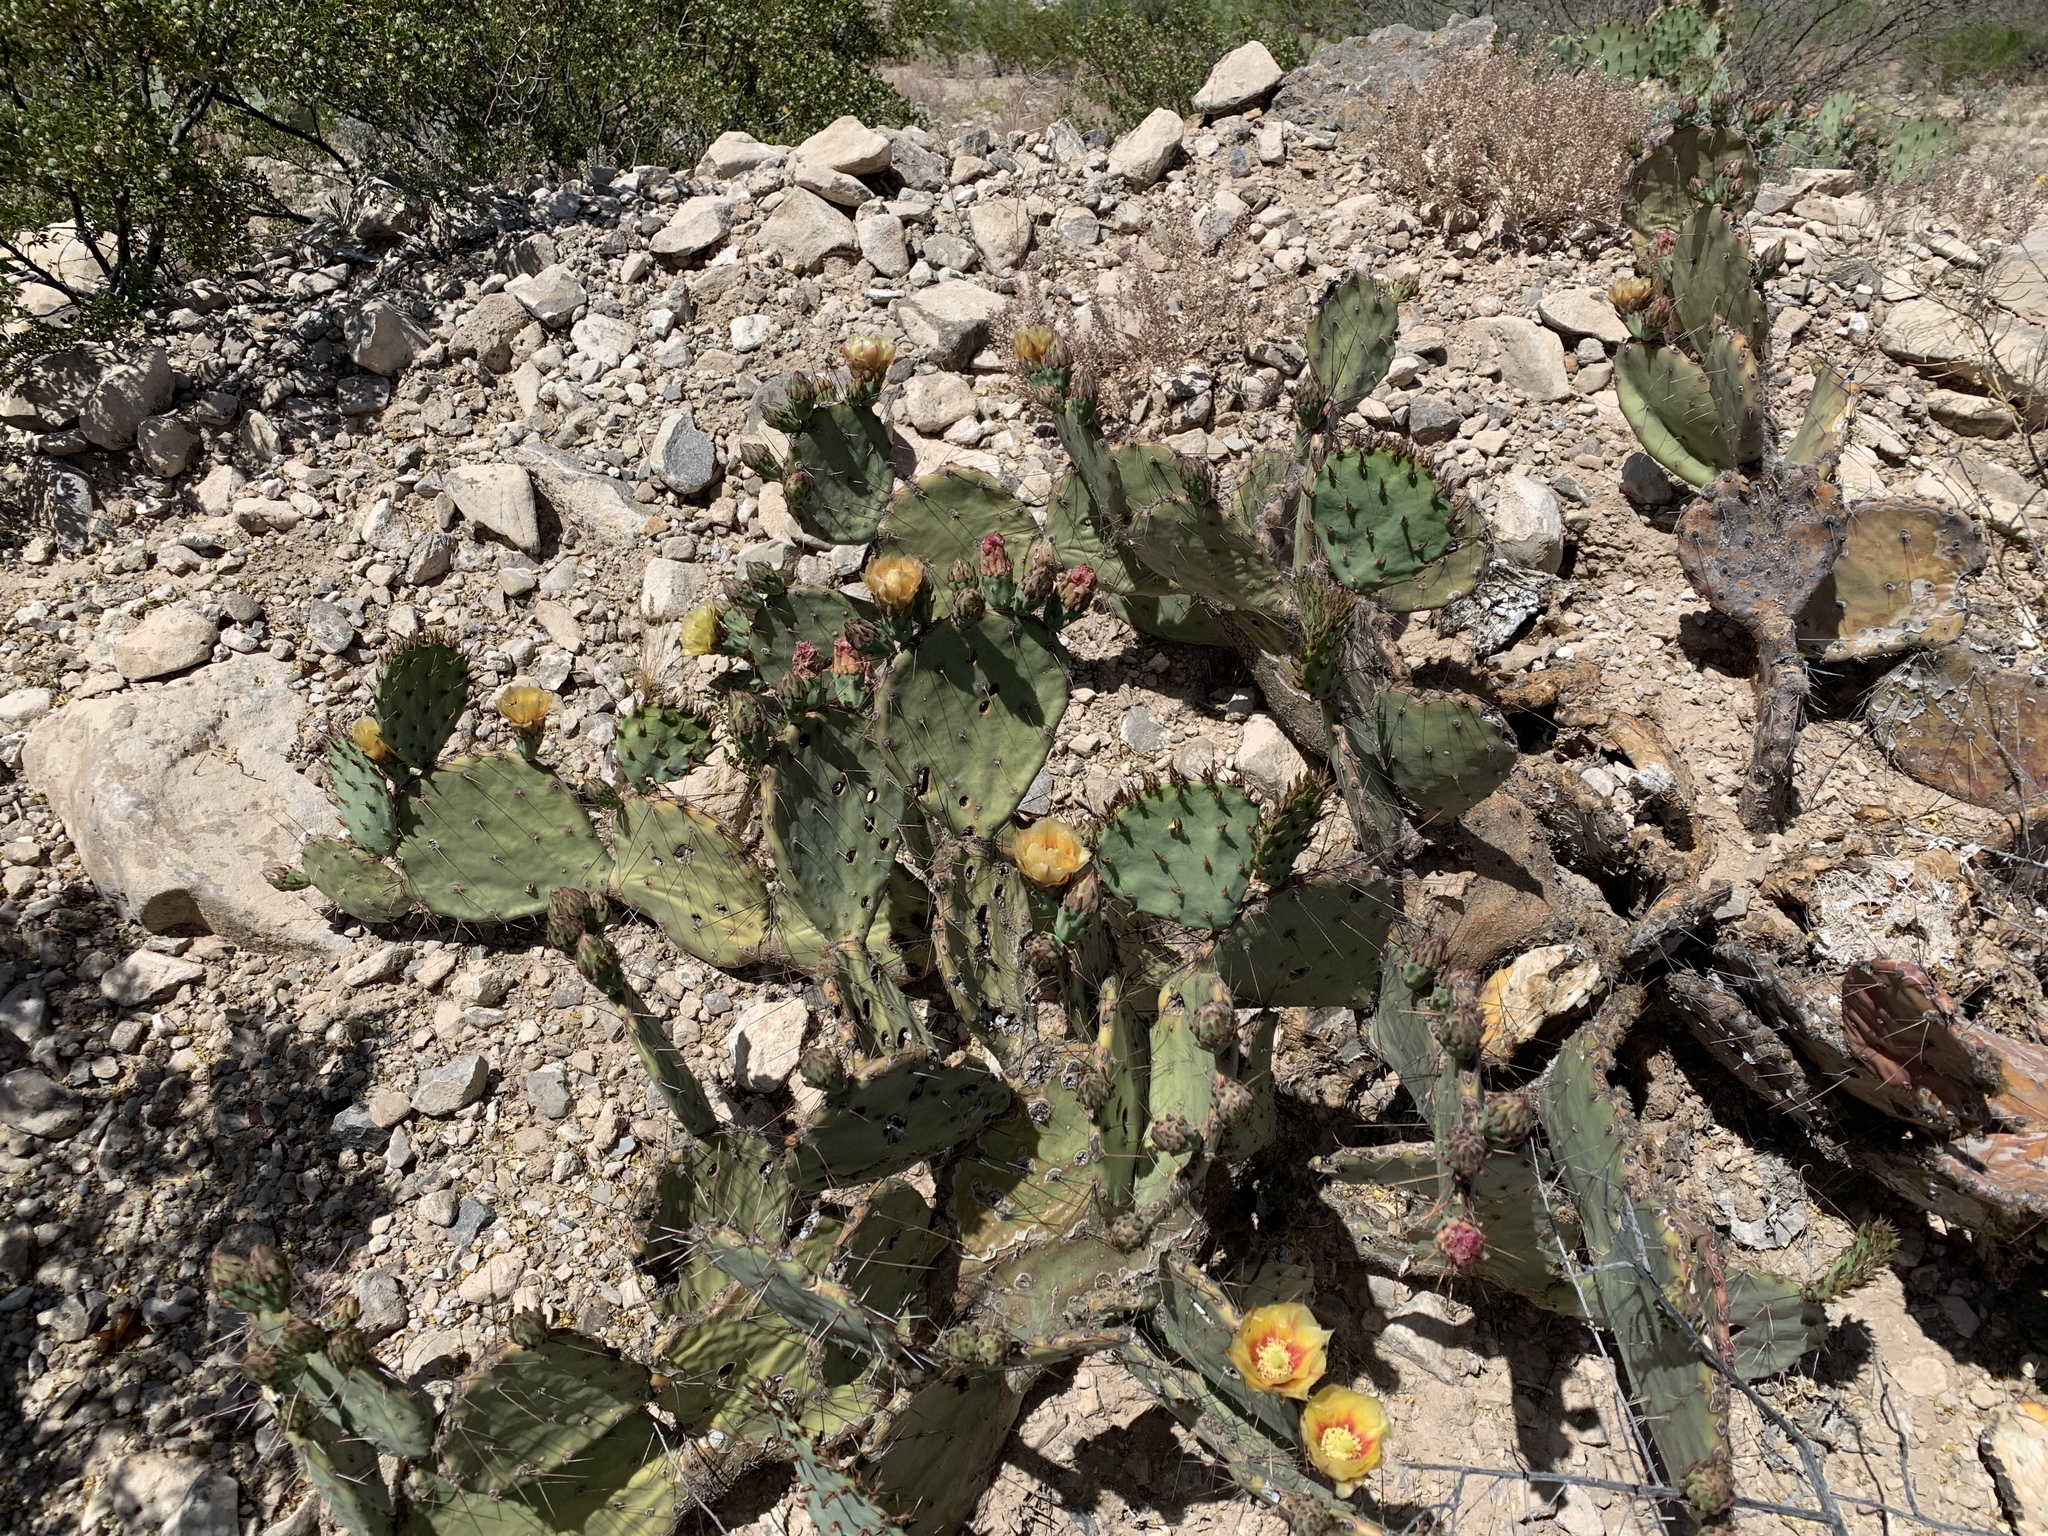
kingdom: Plantae
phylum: Tracheophyta
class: Magnoliopsida
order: Caryophyllales
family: Cactaceae
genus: Opuntia
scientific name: Opuntia phaeacantha
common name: New mexico prickly-pear
